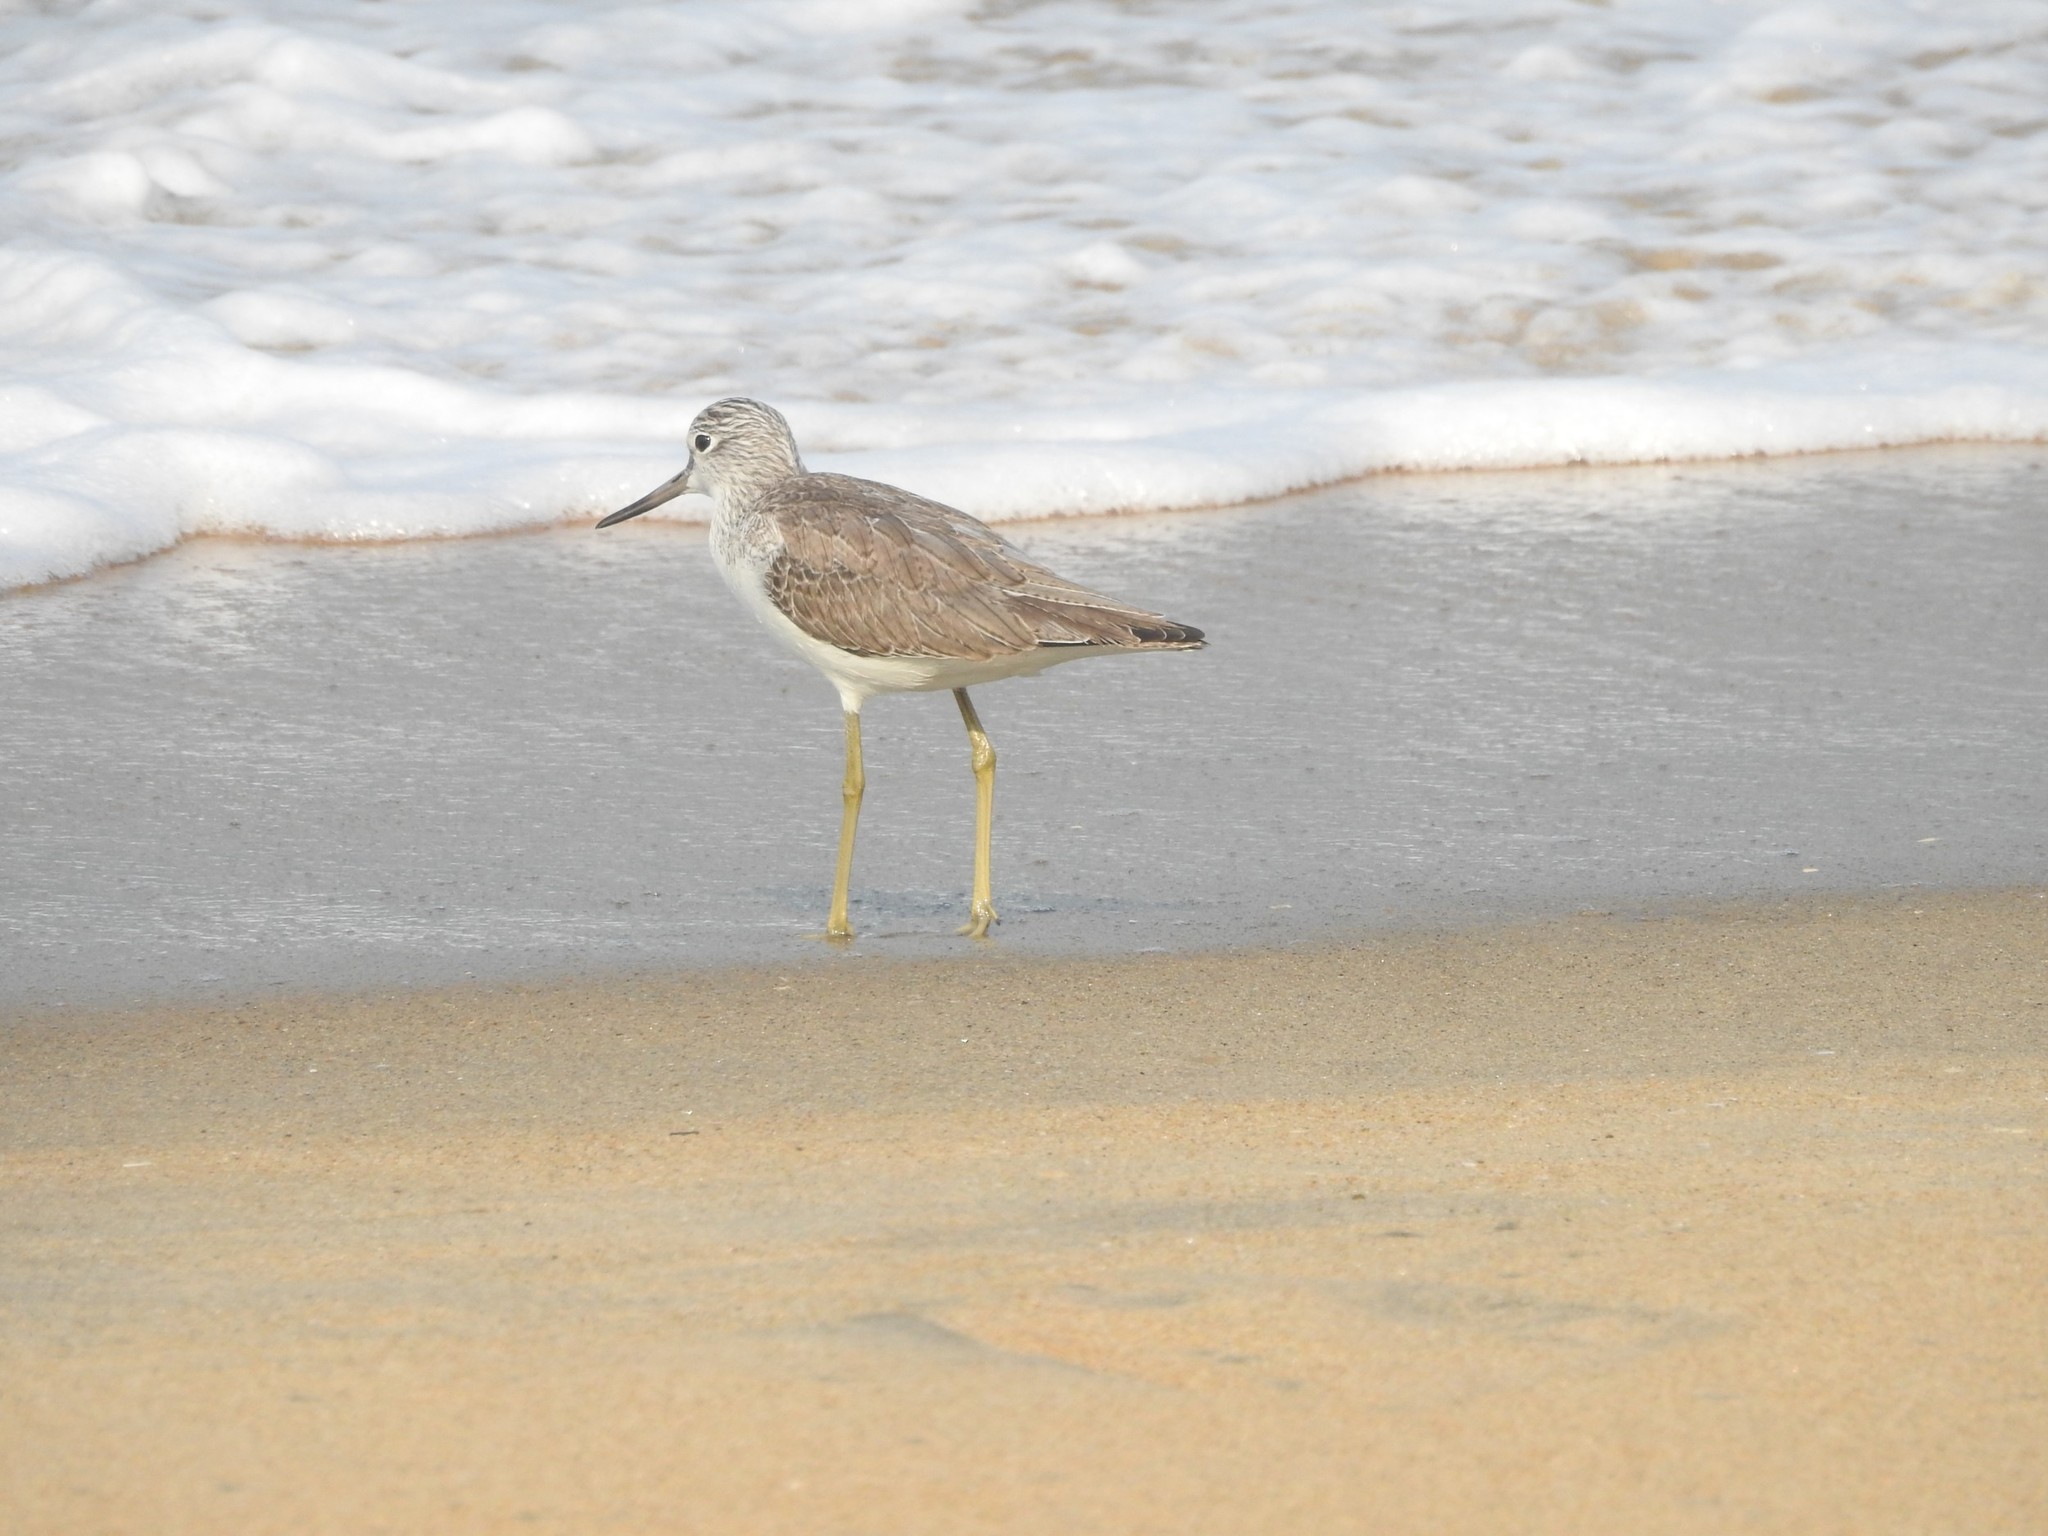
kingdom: Animalia
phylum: Chordata
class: Aves
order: Charadriiformes
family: Scolopacidae
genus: Tringa
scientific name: Tringa nebularia
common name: Common greenshank
